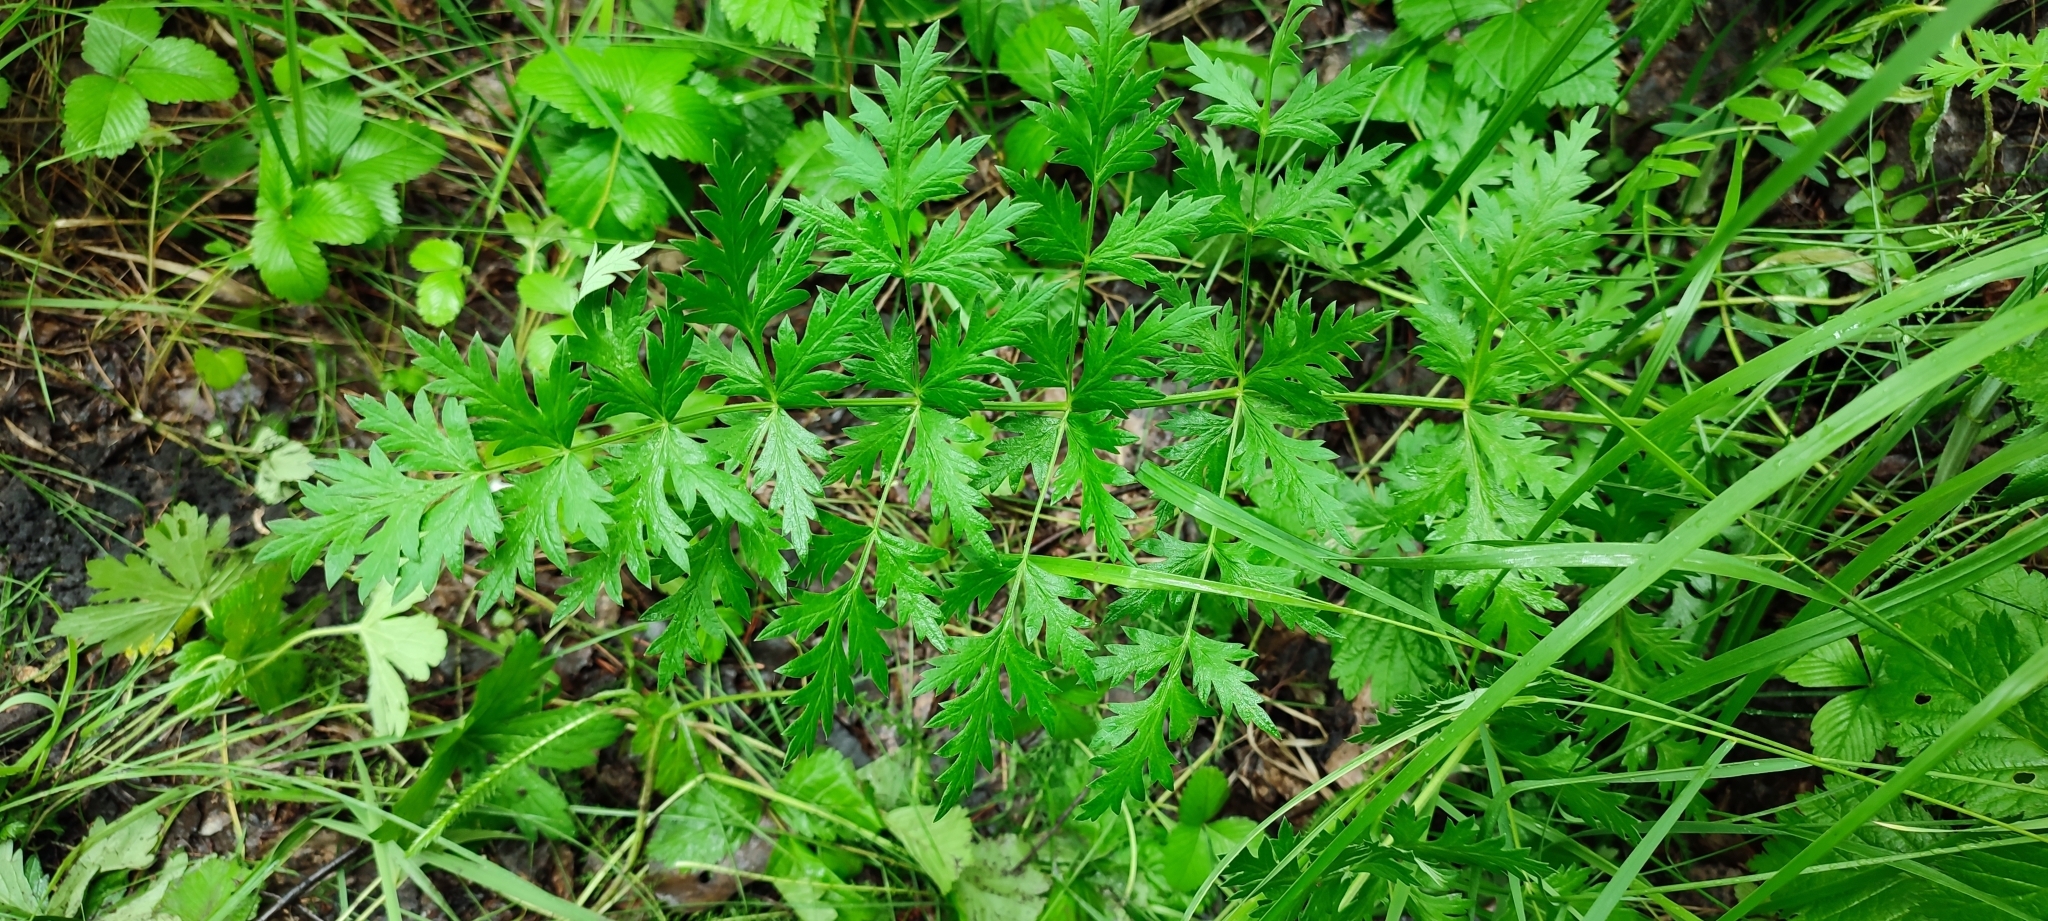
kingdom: Plantae
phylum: Tracheophyta
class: Magnoliopsida
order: Apiales
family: Apiaceae
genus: Seseli
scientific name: Seseli libanotis
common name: Mooncarrot
